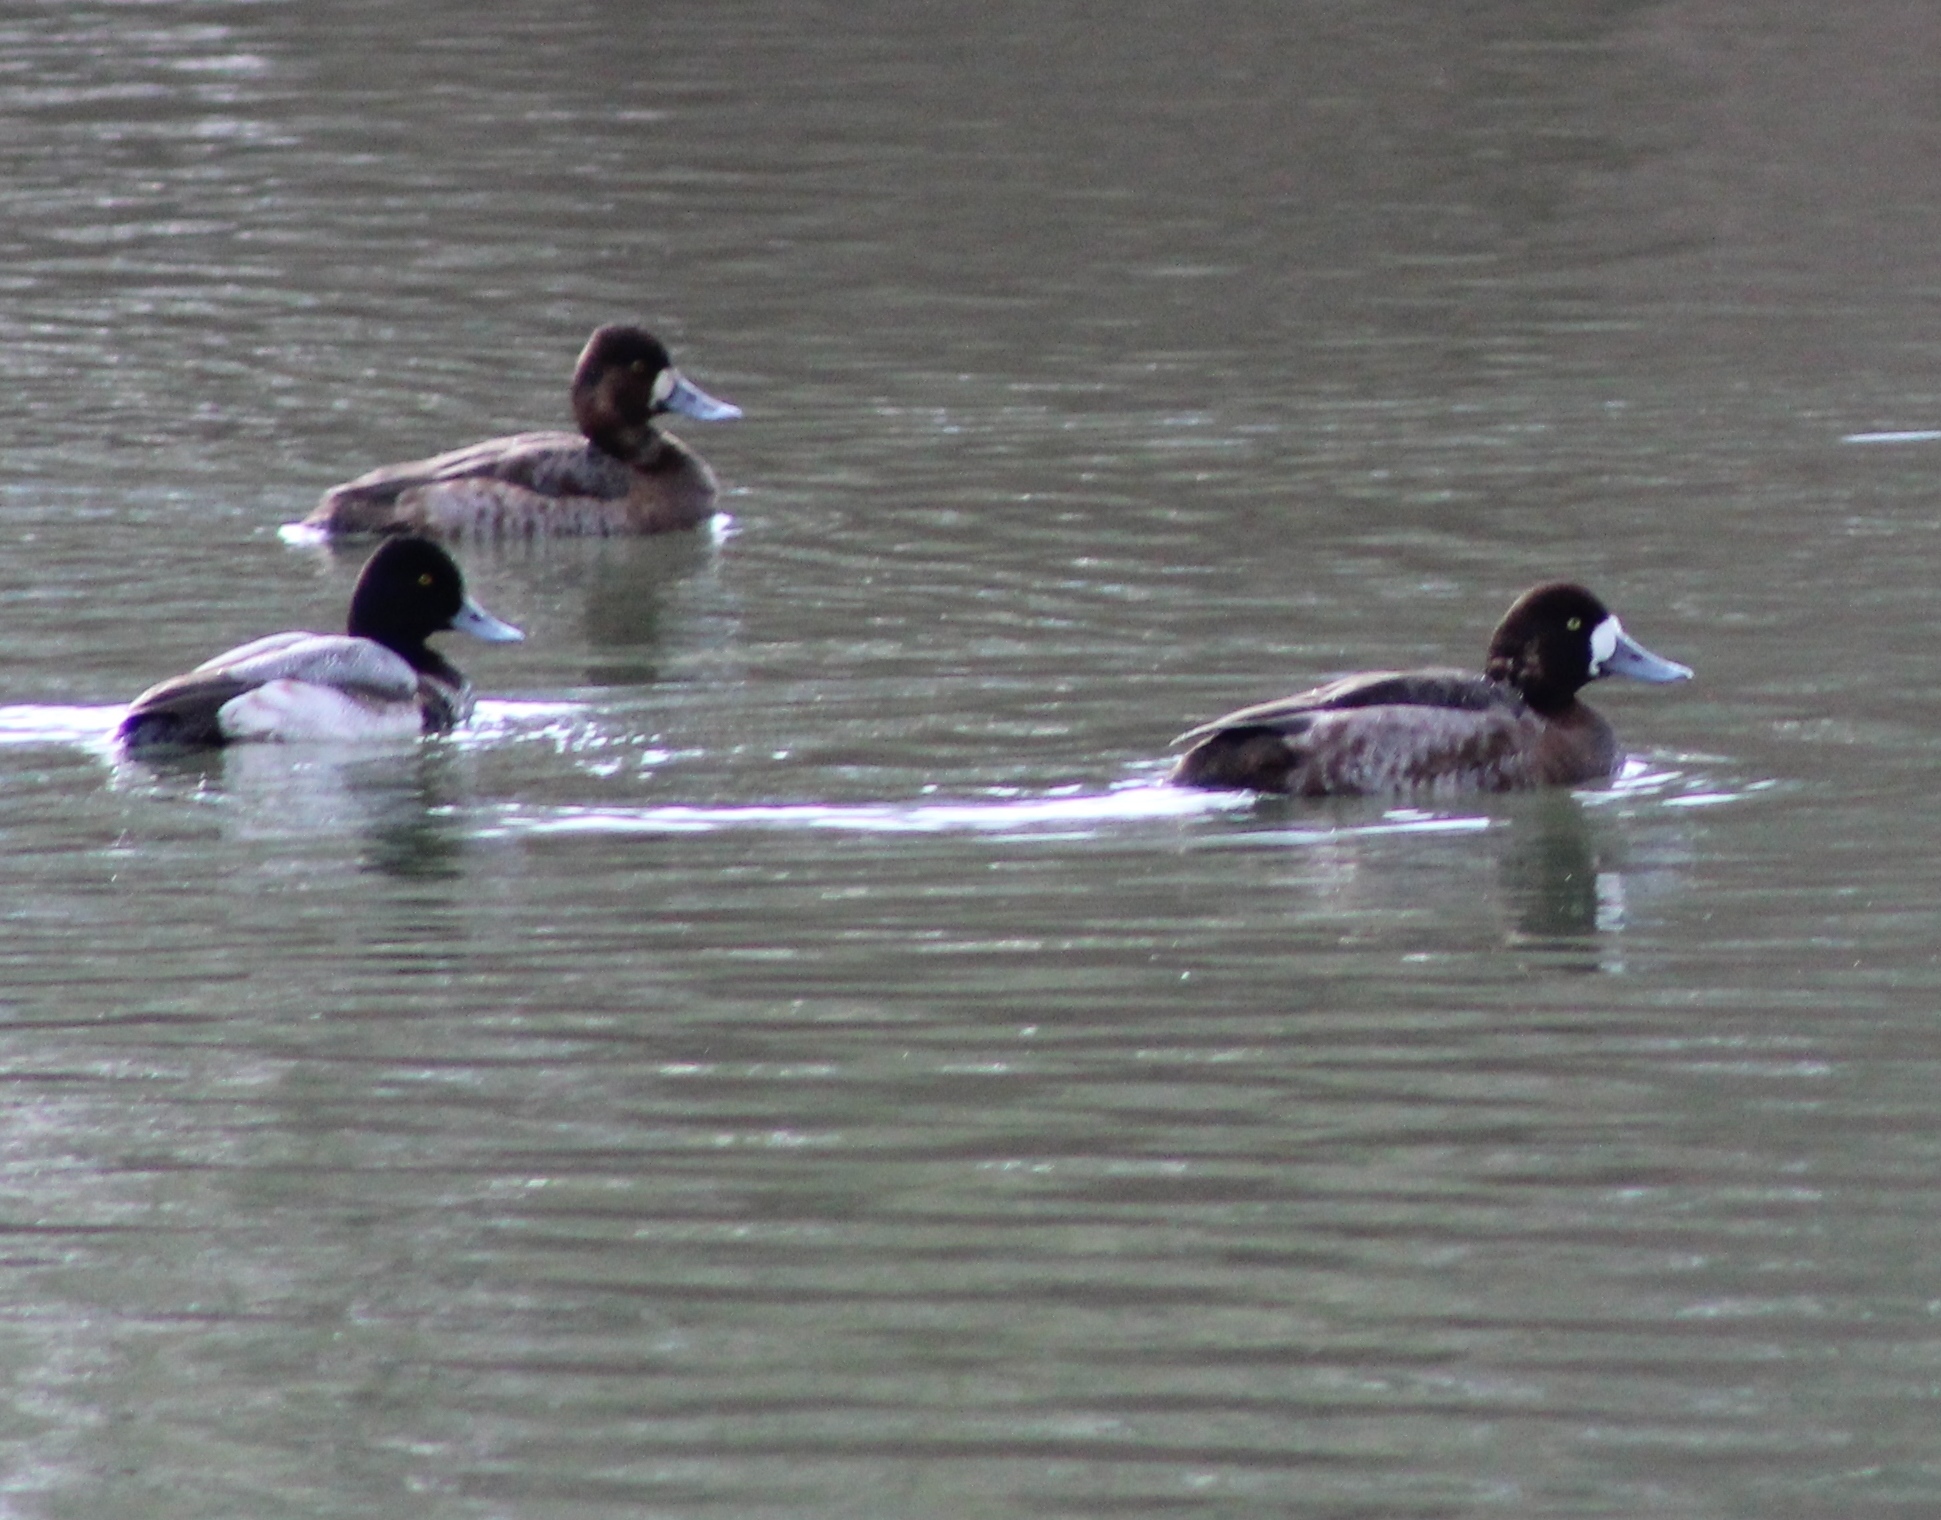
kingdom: Animalia
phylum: Chordata
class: Aves
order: Anseriformes
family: Anatidae
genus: Aythya
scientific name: Aythya affinis
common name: Lesser scaup
